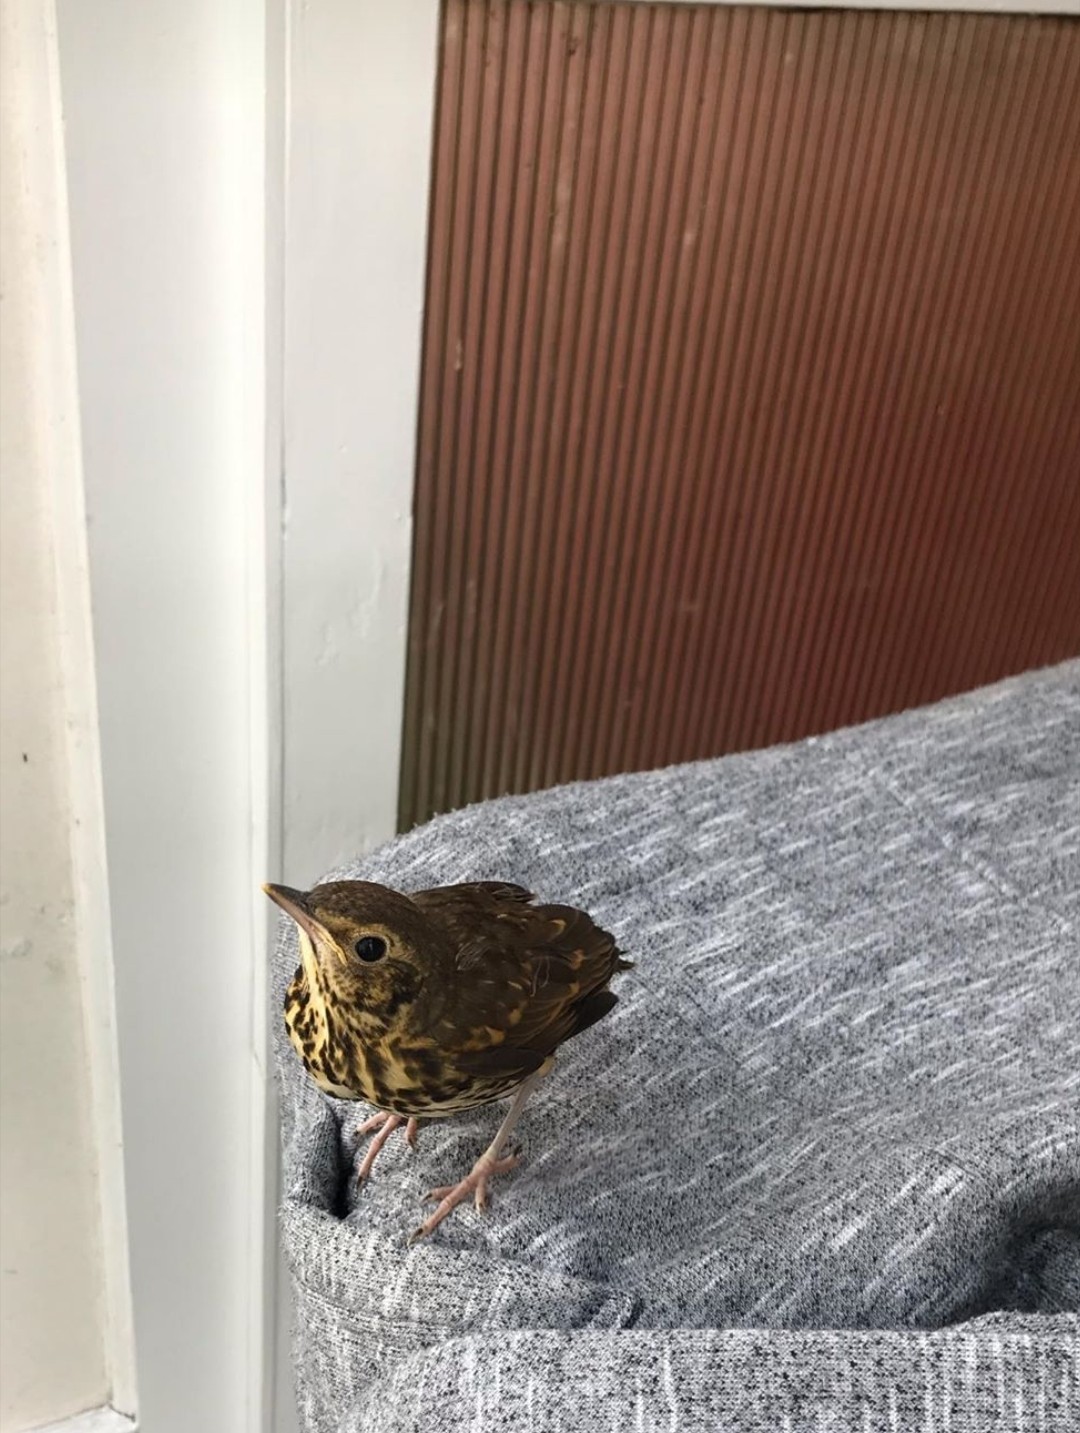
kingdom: Animalia
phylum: Chordata
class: Aves
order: Passeriformes
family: Turdidae
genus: Turdus
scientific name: Turdus philomelos
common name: Song thrush
